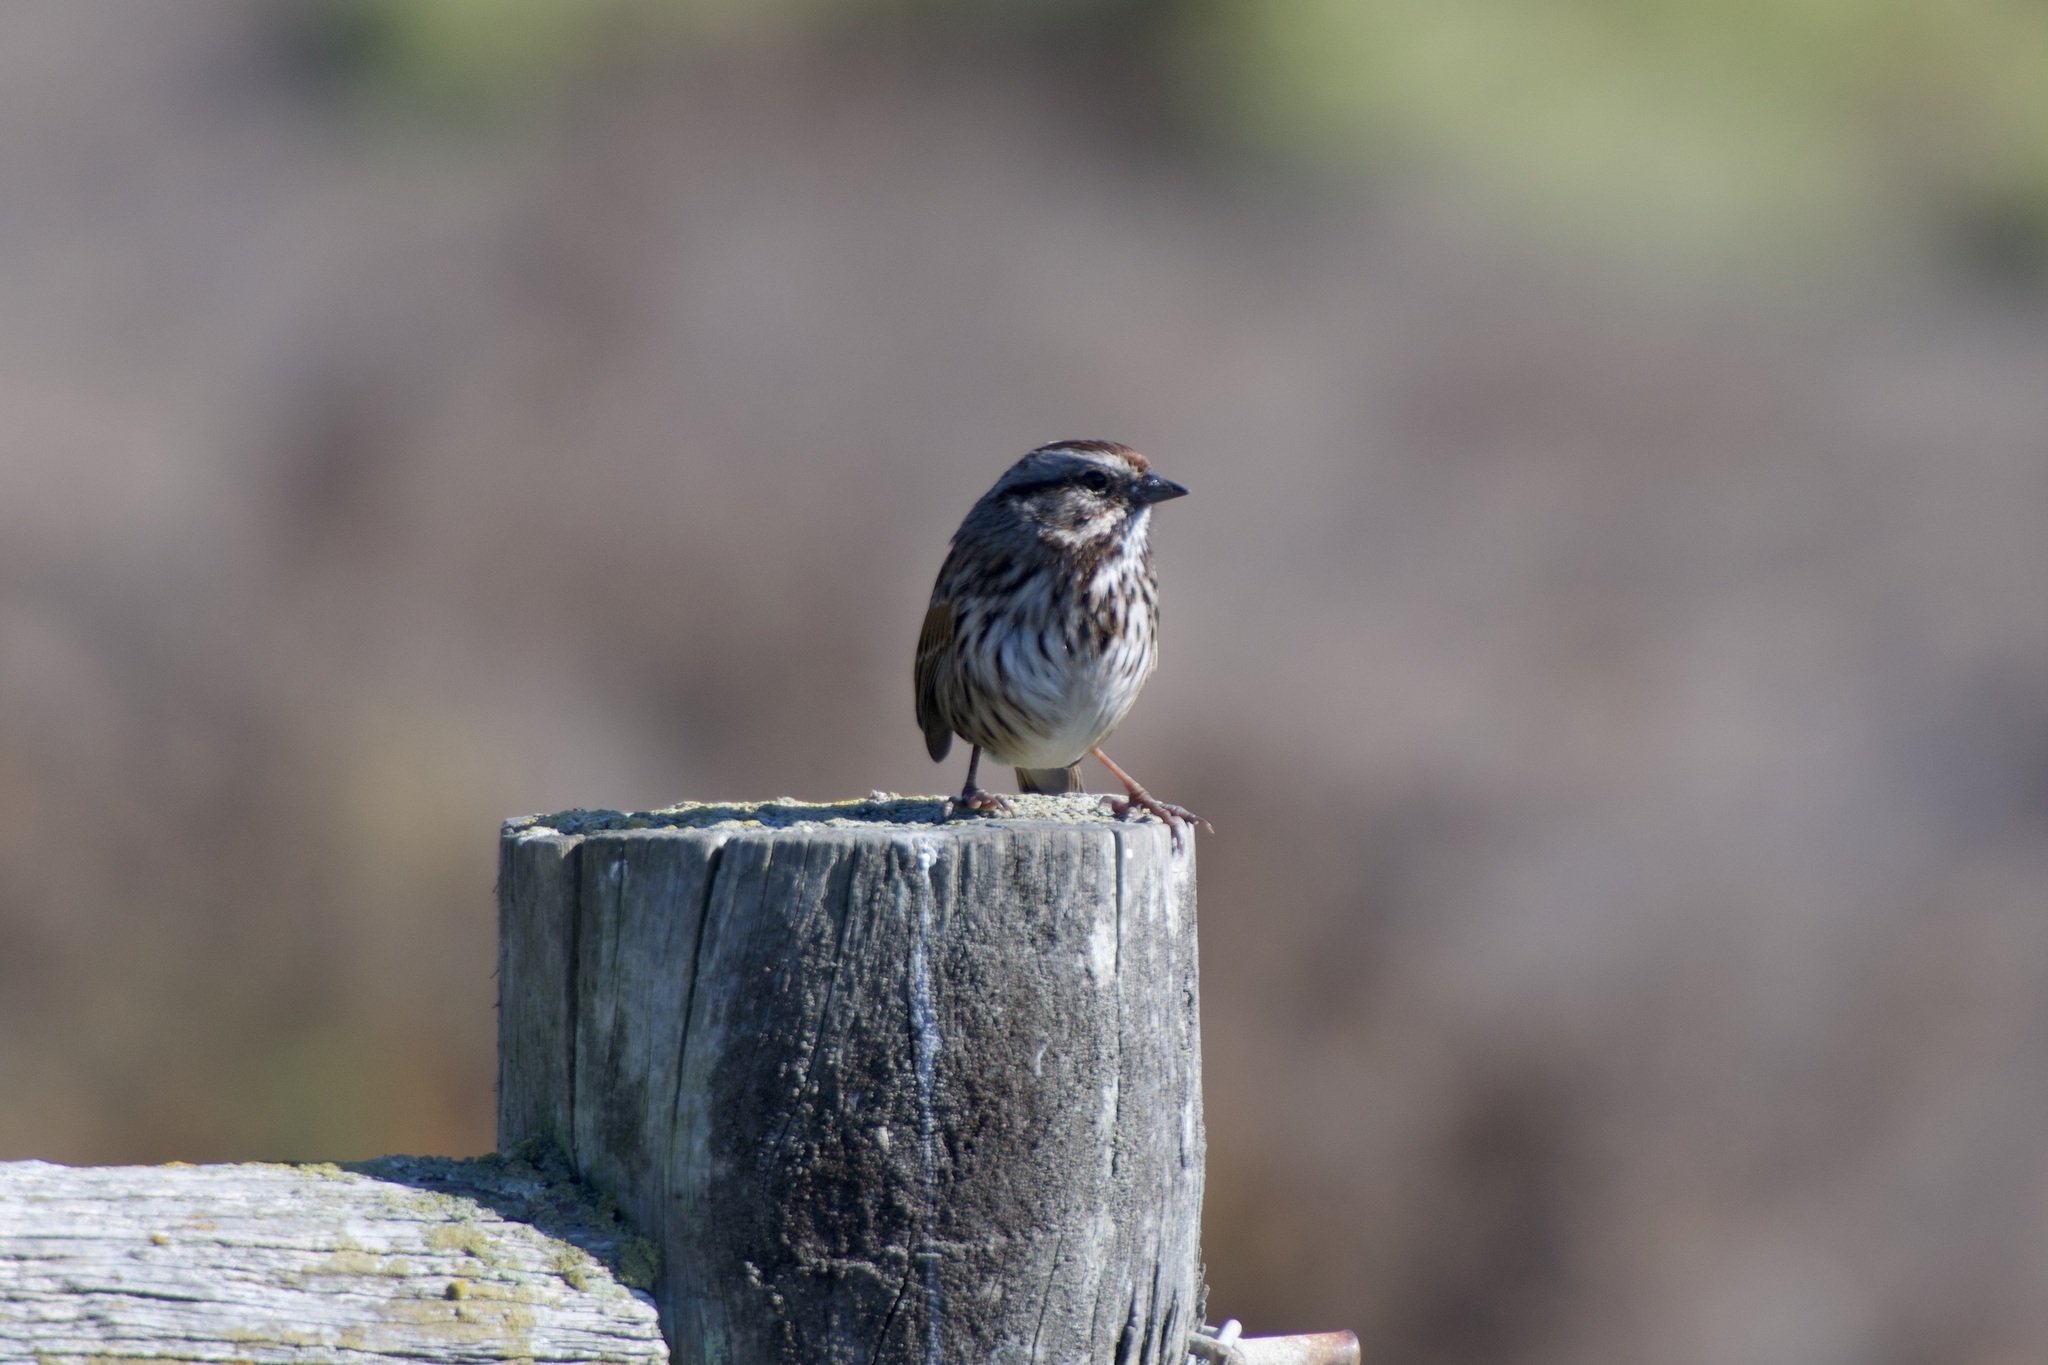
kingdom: Animalia
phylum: Chordata
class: Aves
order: Passeriformes
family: Passerellidae
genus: Melospiza
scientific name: Melospiza melodia
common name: Song sparrow
